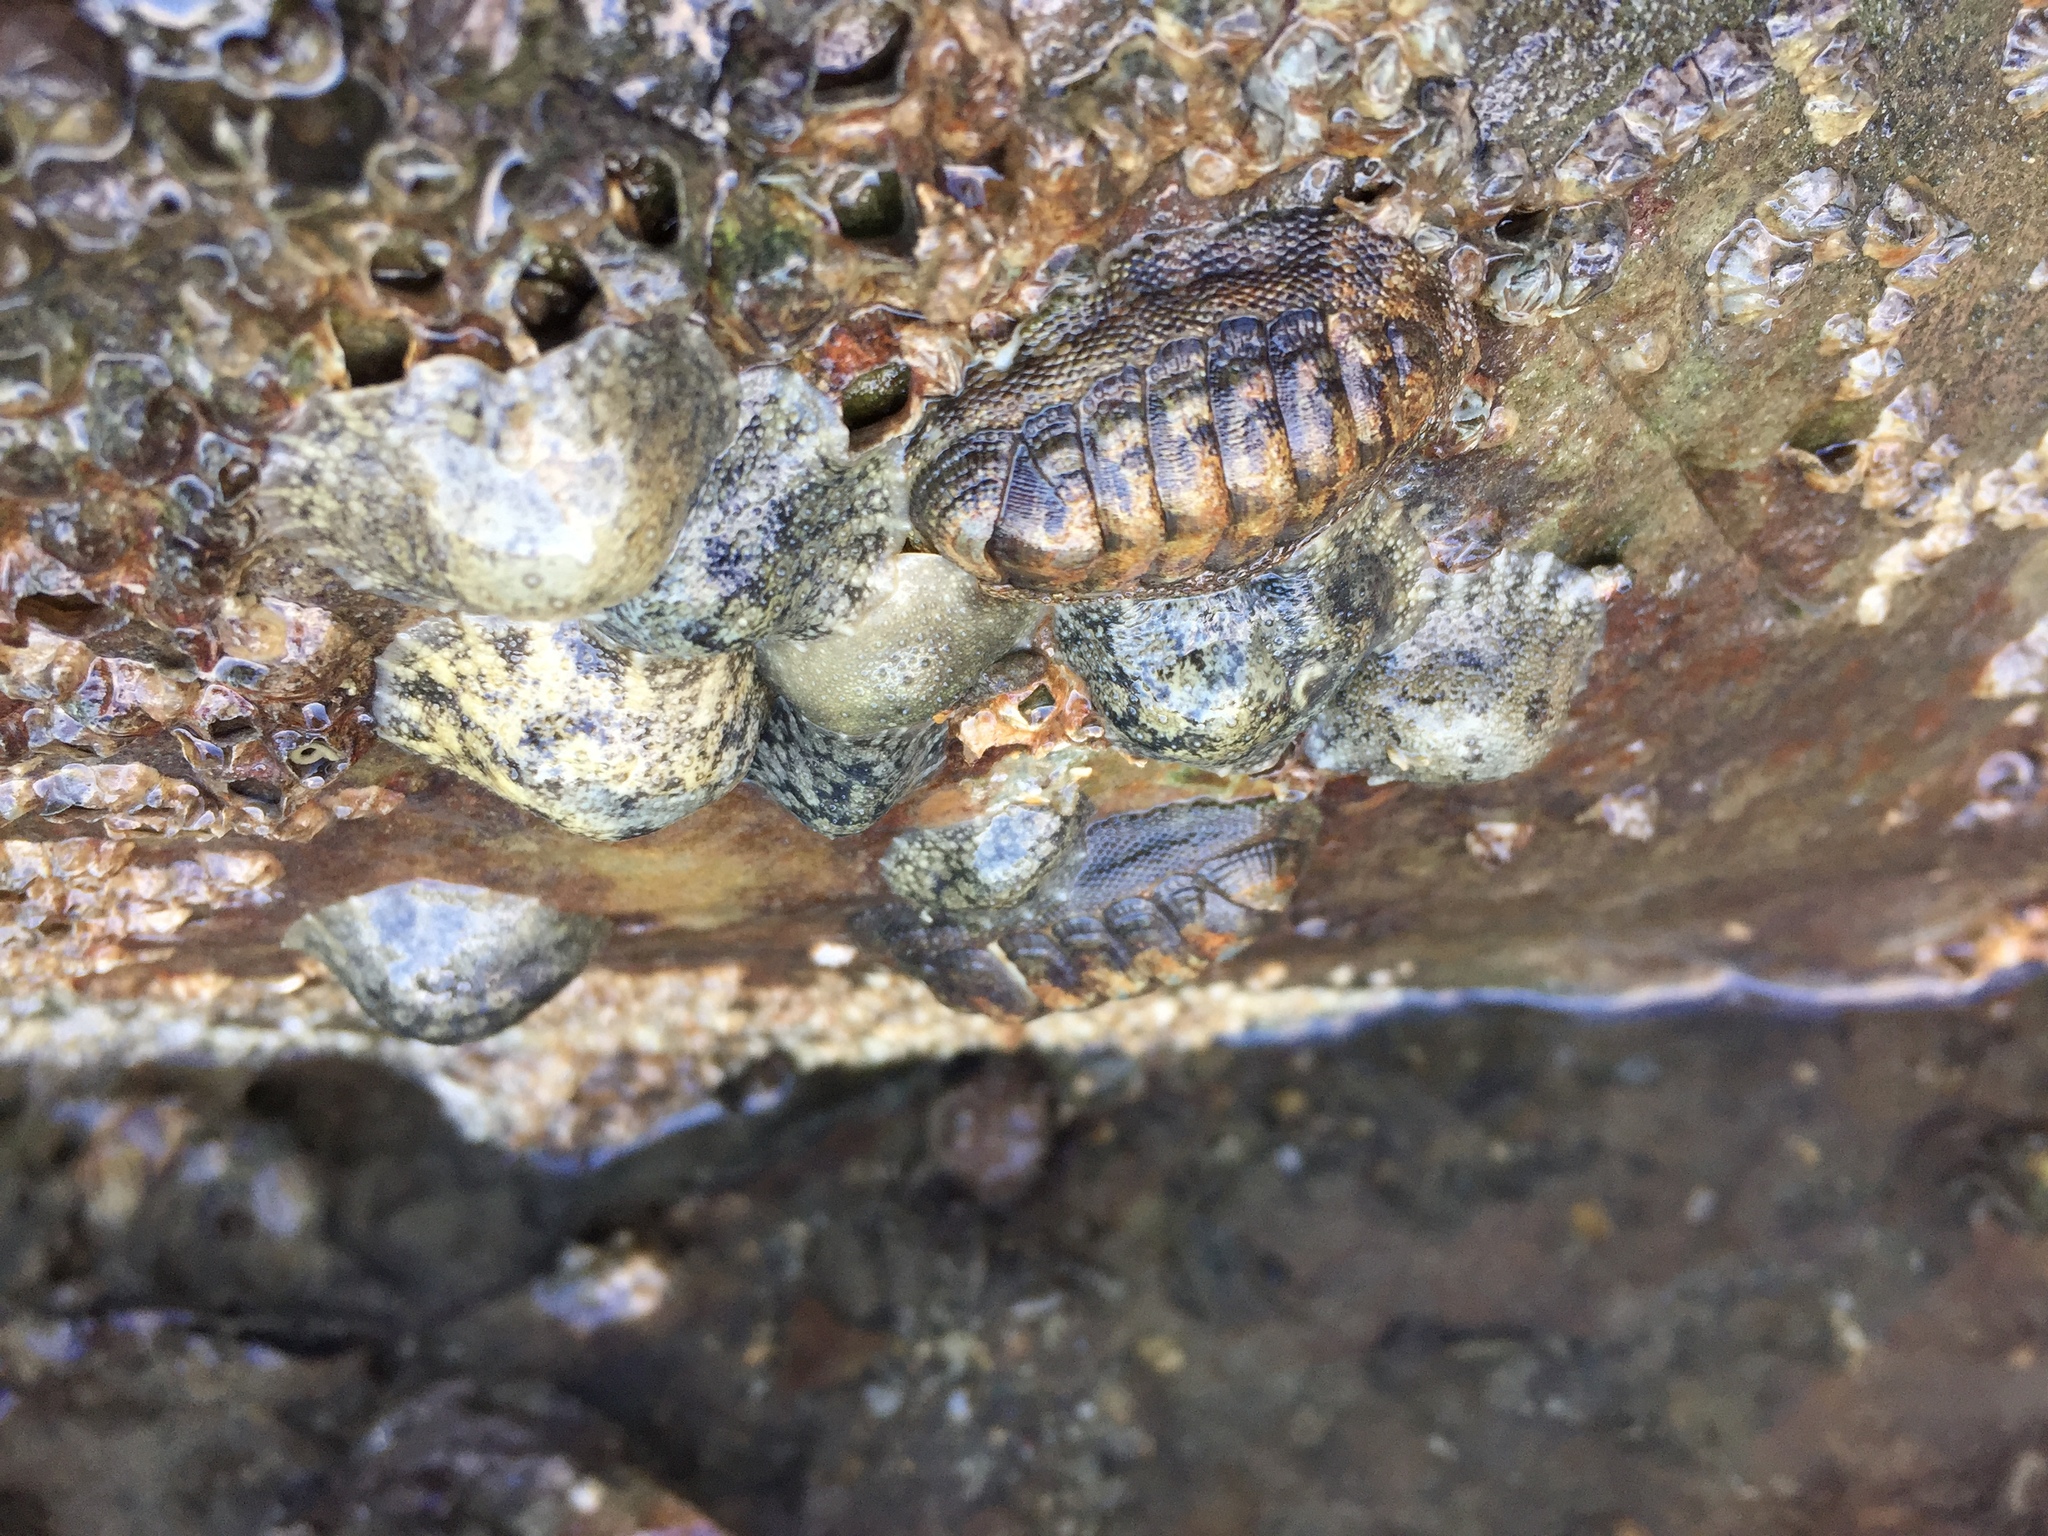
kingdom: Animalia
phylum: Mollusca
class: Polyplacophora
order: Chitonida
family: Chitonidae
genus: Sypharochiton
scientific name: Sypharochiton pelliserpentis
